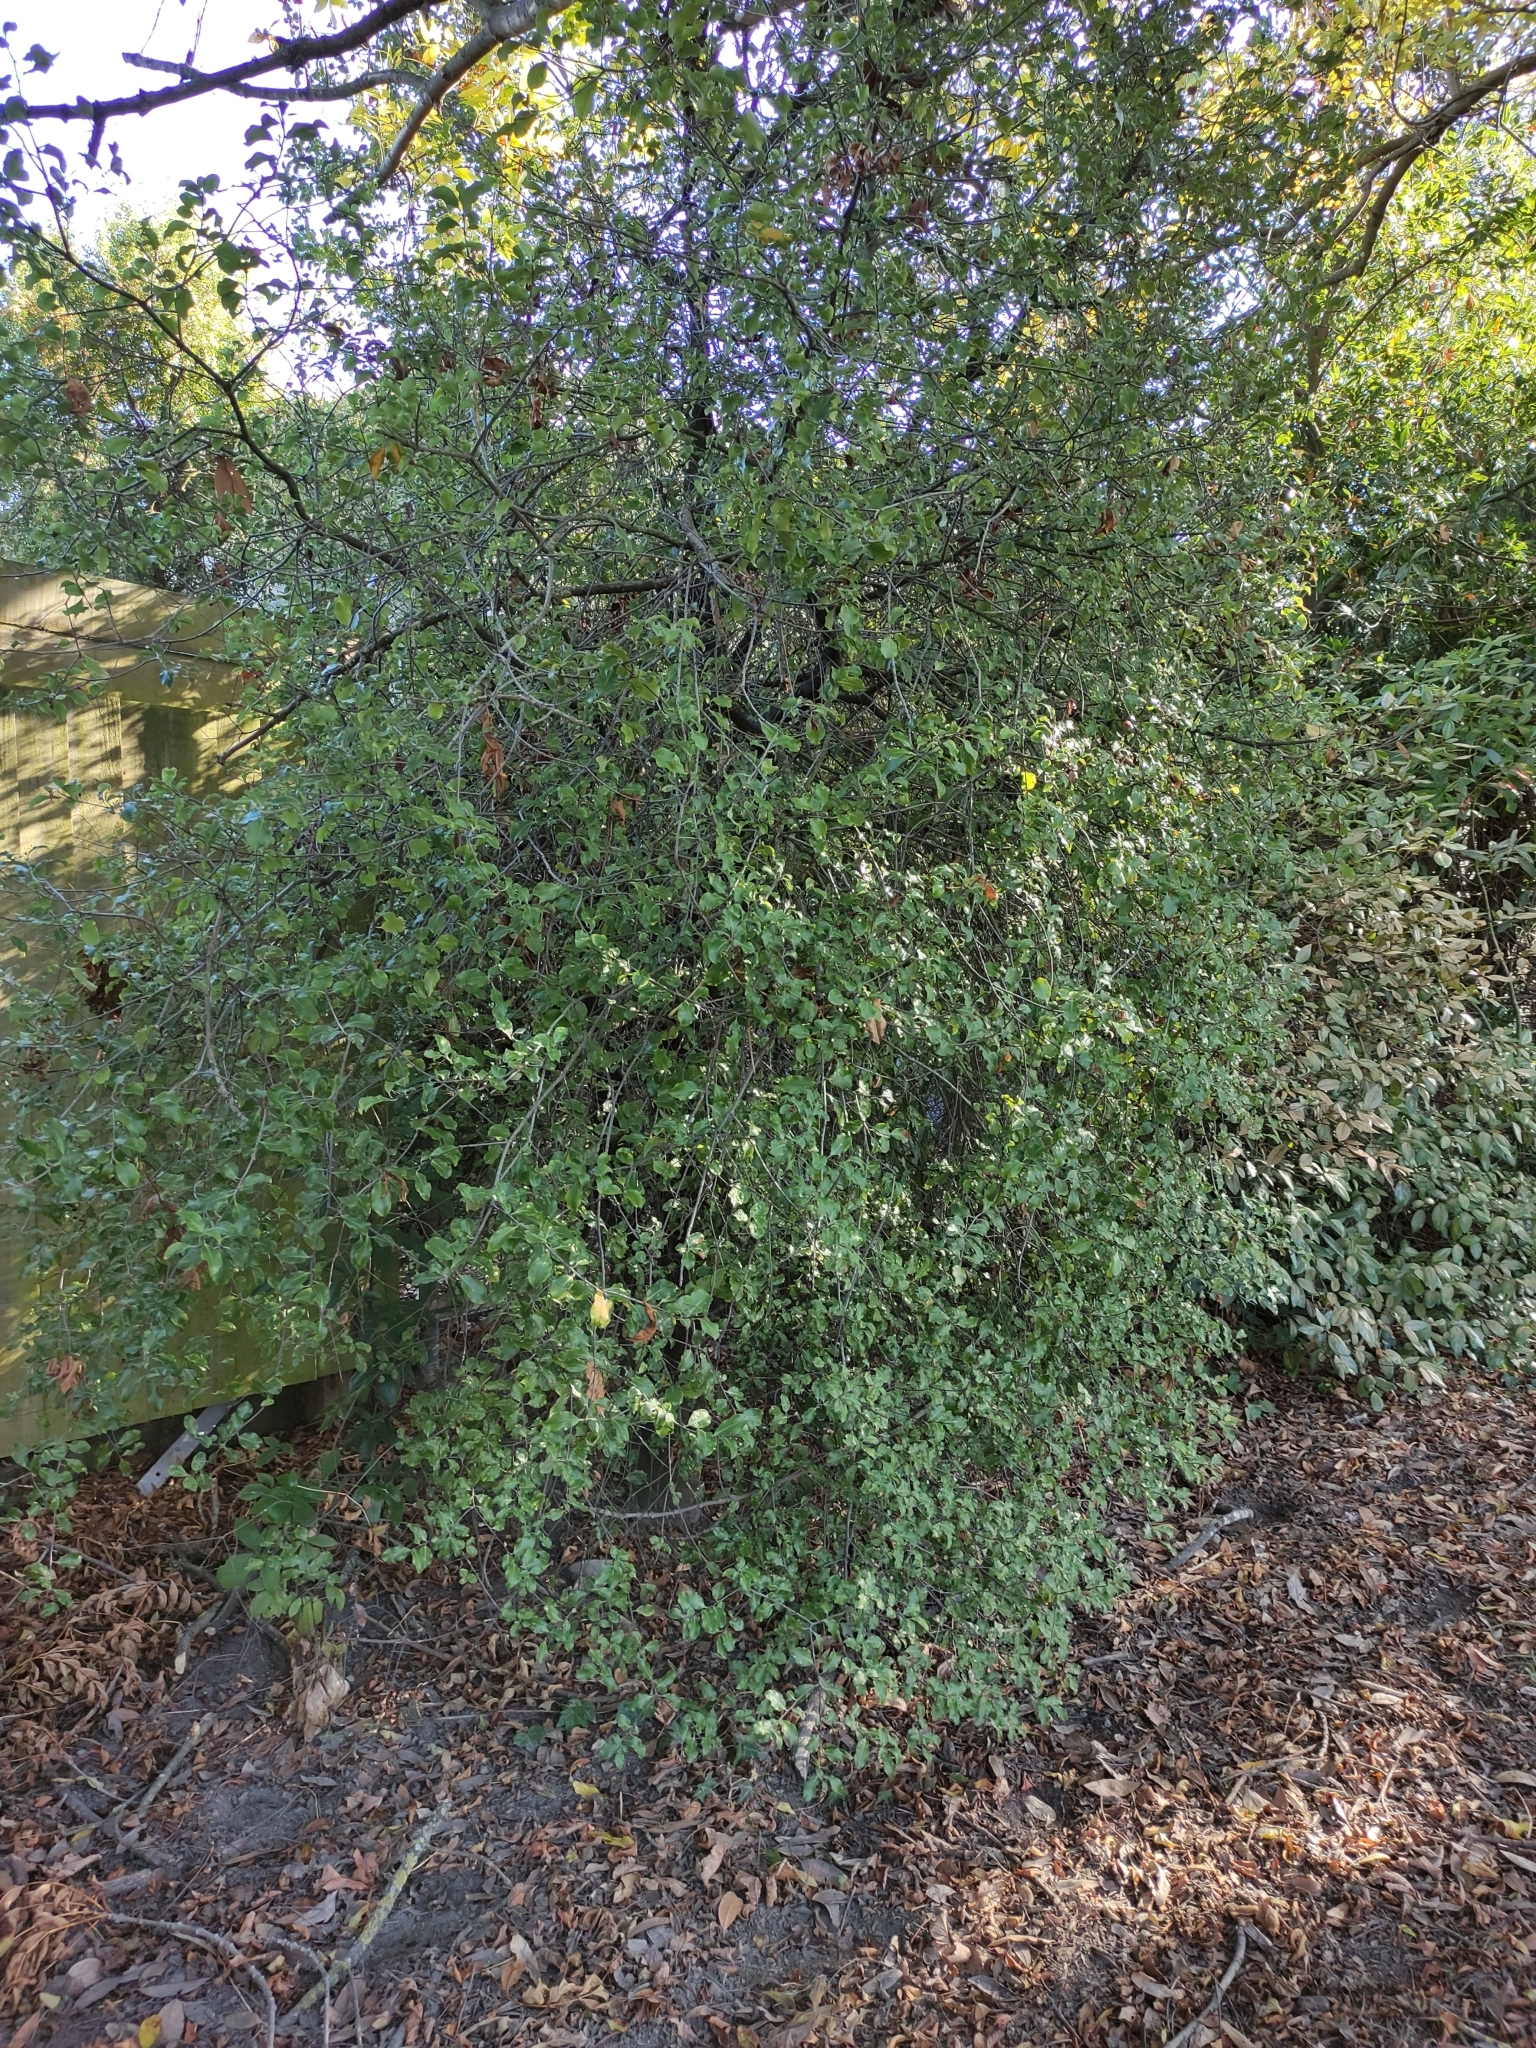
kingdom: Plantae
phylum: Tracheophyta
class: Magnoliopsida
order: Apiales
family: Pittosporaceae
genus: Pittosporum
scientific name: Pittosporum tenuifolium
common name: Kohuhu
